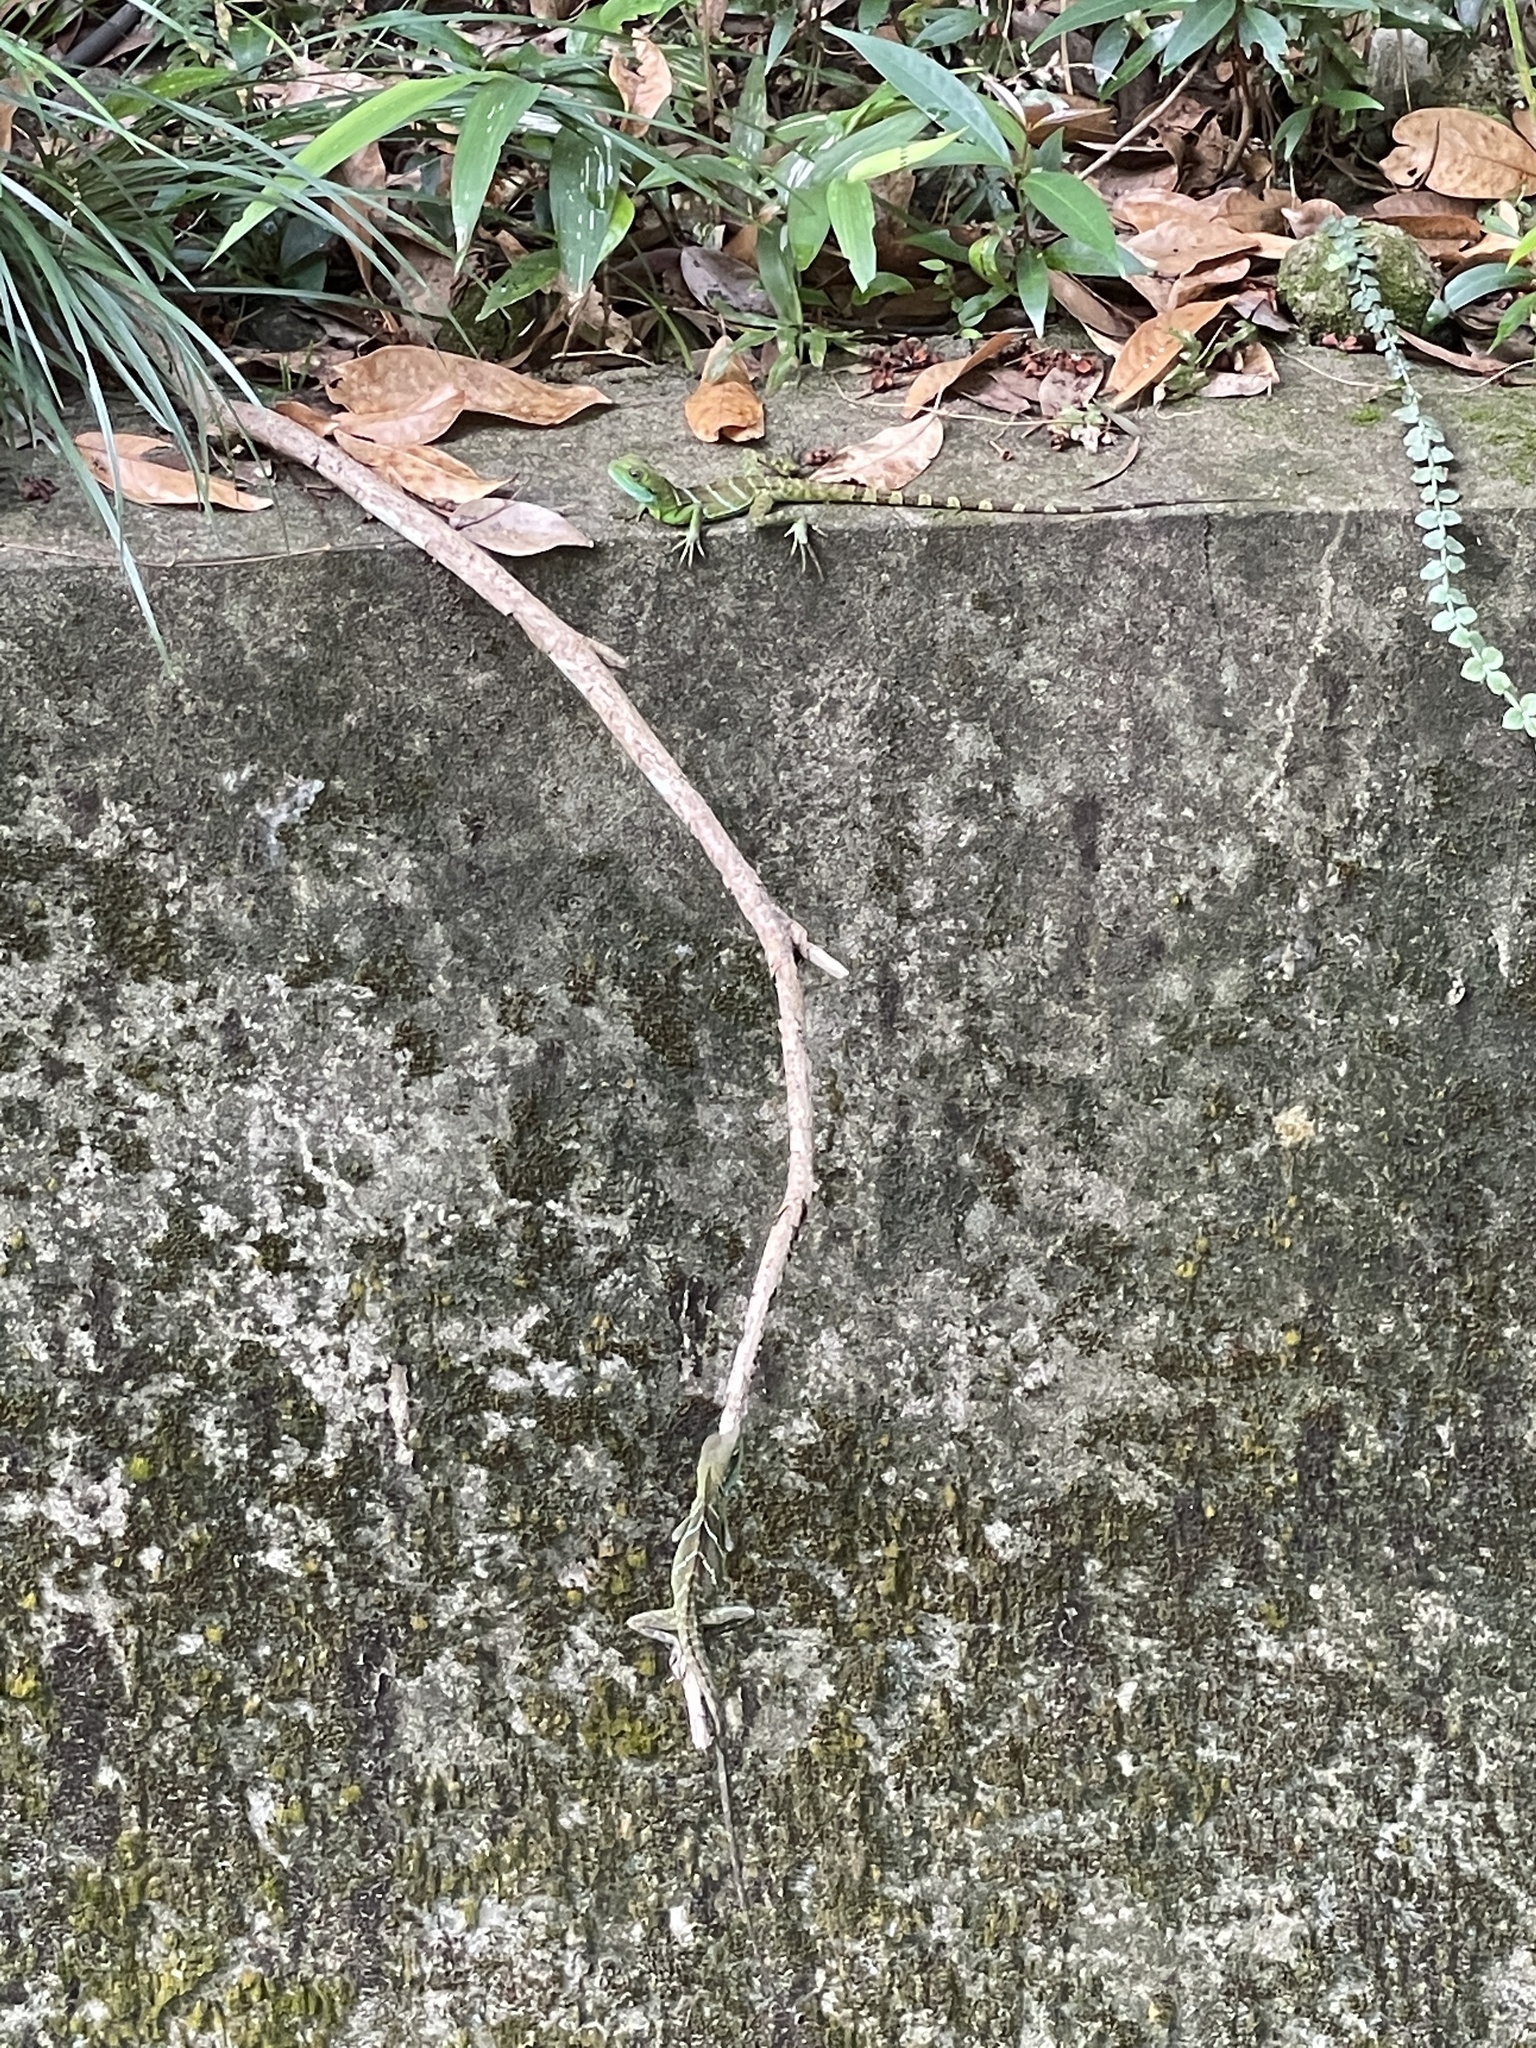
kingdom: Animalia
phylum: Chordata
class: Squamata
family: Agamidae
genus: Physignathus
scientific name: Physignathus cocincinus
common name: Asian water dragon
